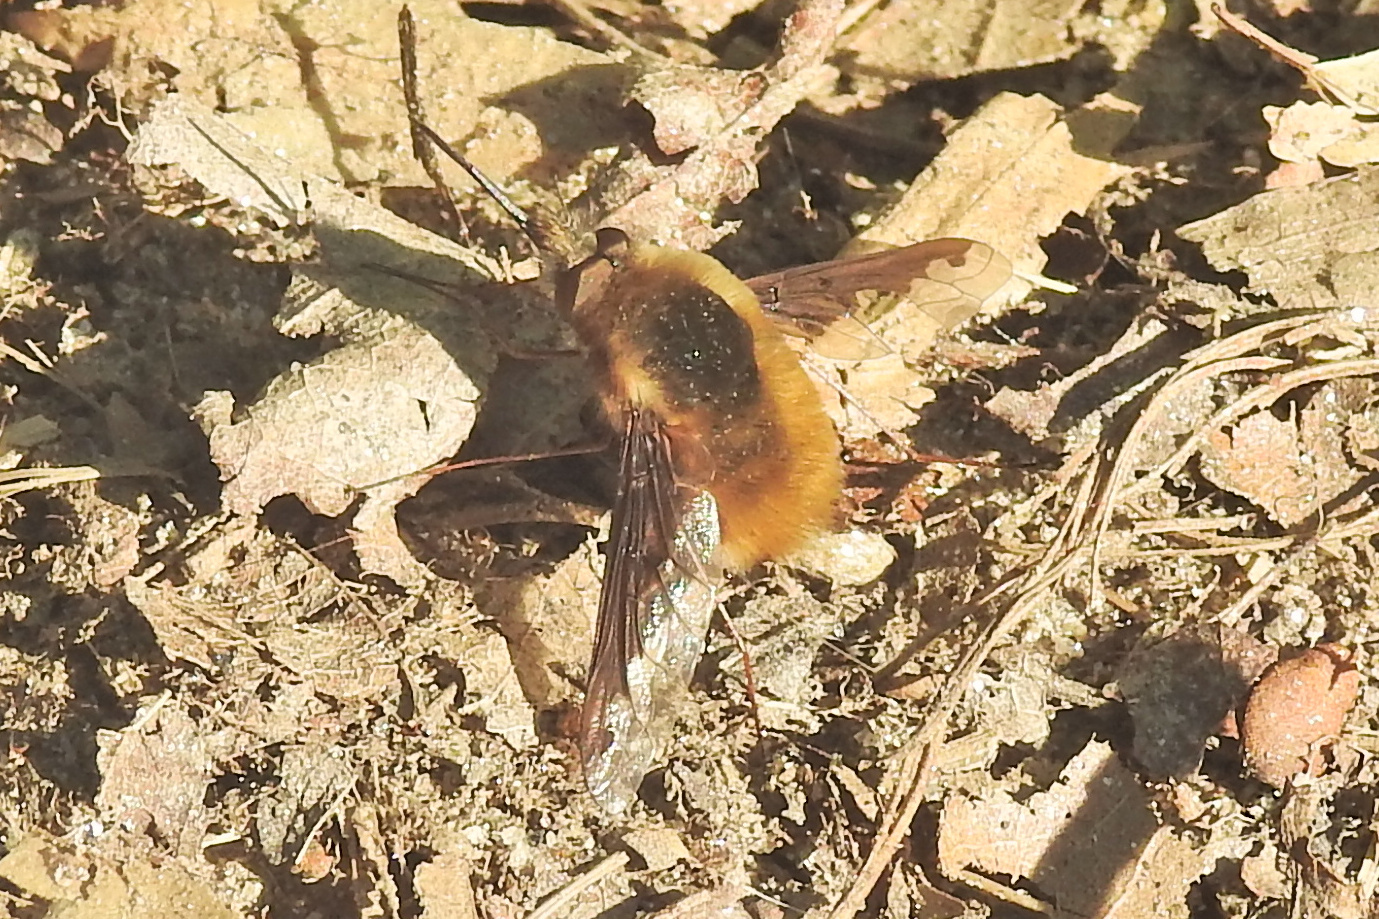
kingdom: Animalia
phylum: Arthropoda
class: Insecta
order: Diptera
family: Bombyliidae
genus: Bombylius
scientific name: Bombylius major
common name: Bee fly
